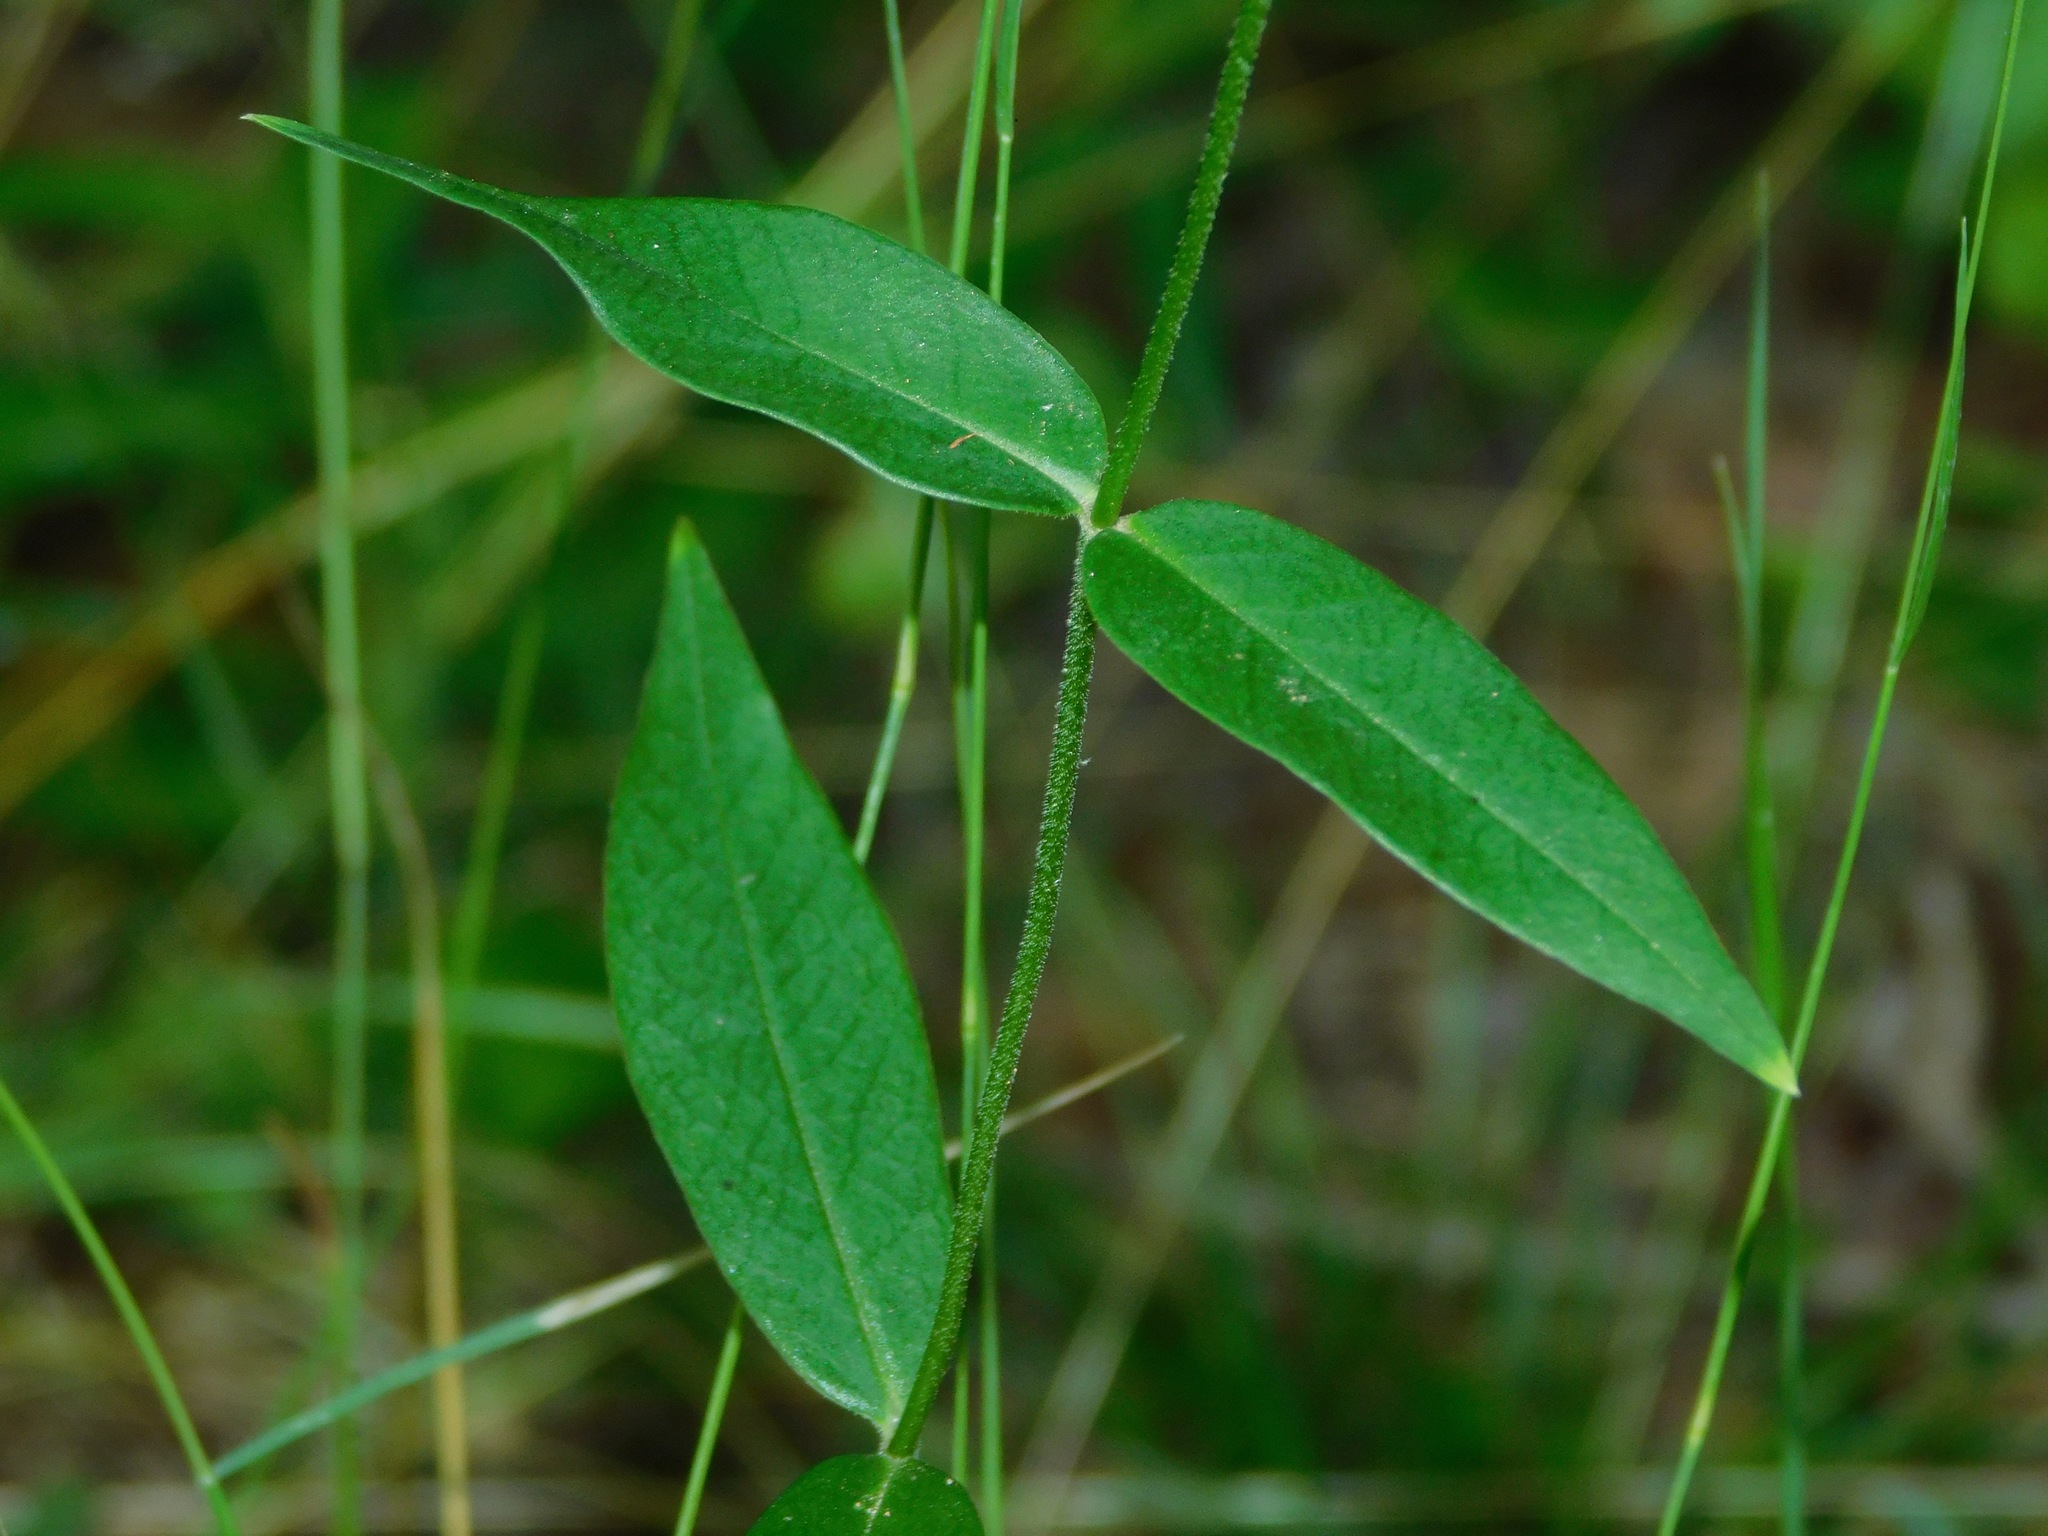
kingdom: Plantae
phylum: Tracheophyta
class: Magnoliopsida
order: Ericales
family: Polemoniaceae
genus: Phlox
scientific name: Phlox carolina
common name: Thick-leaf phlox
